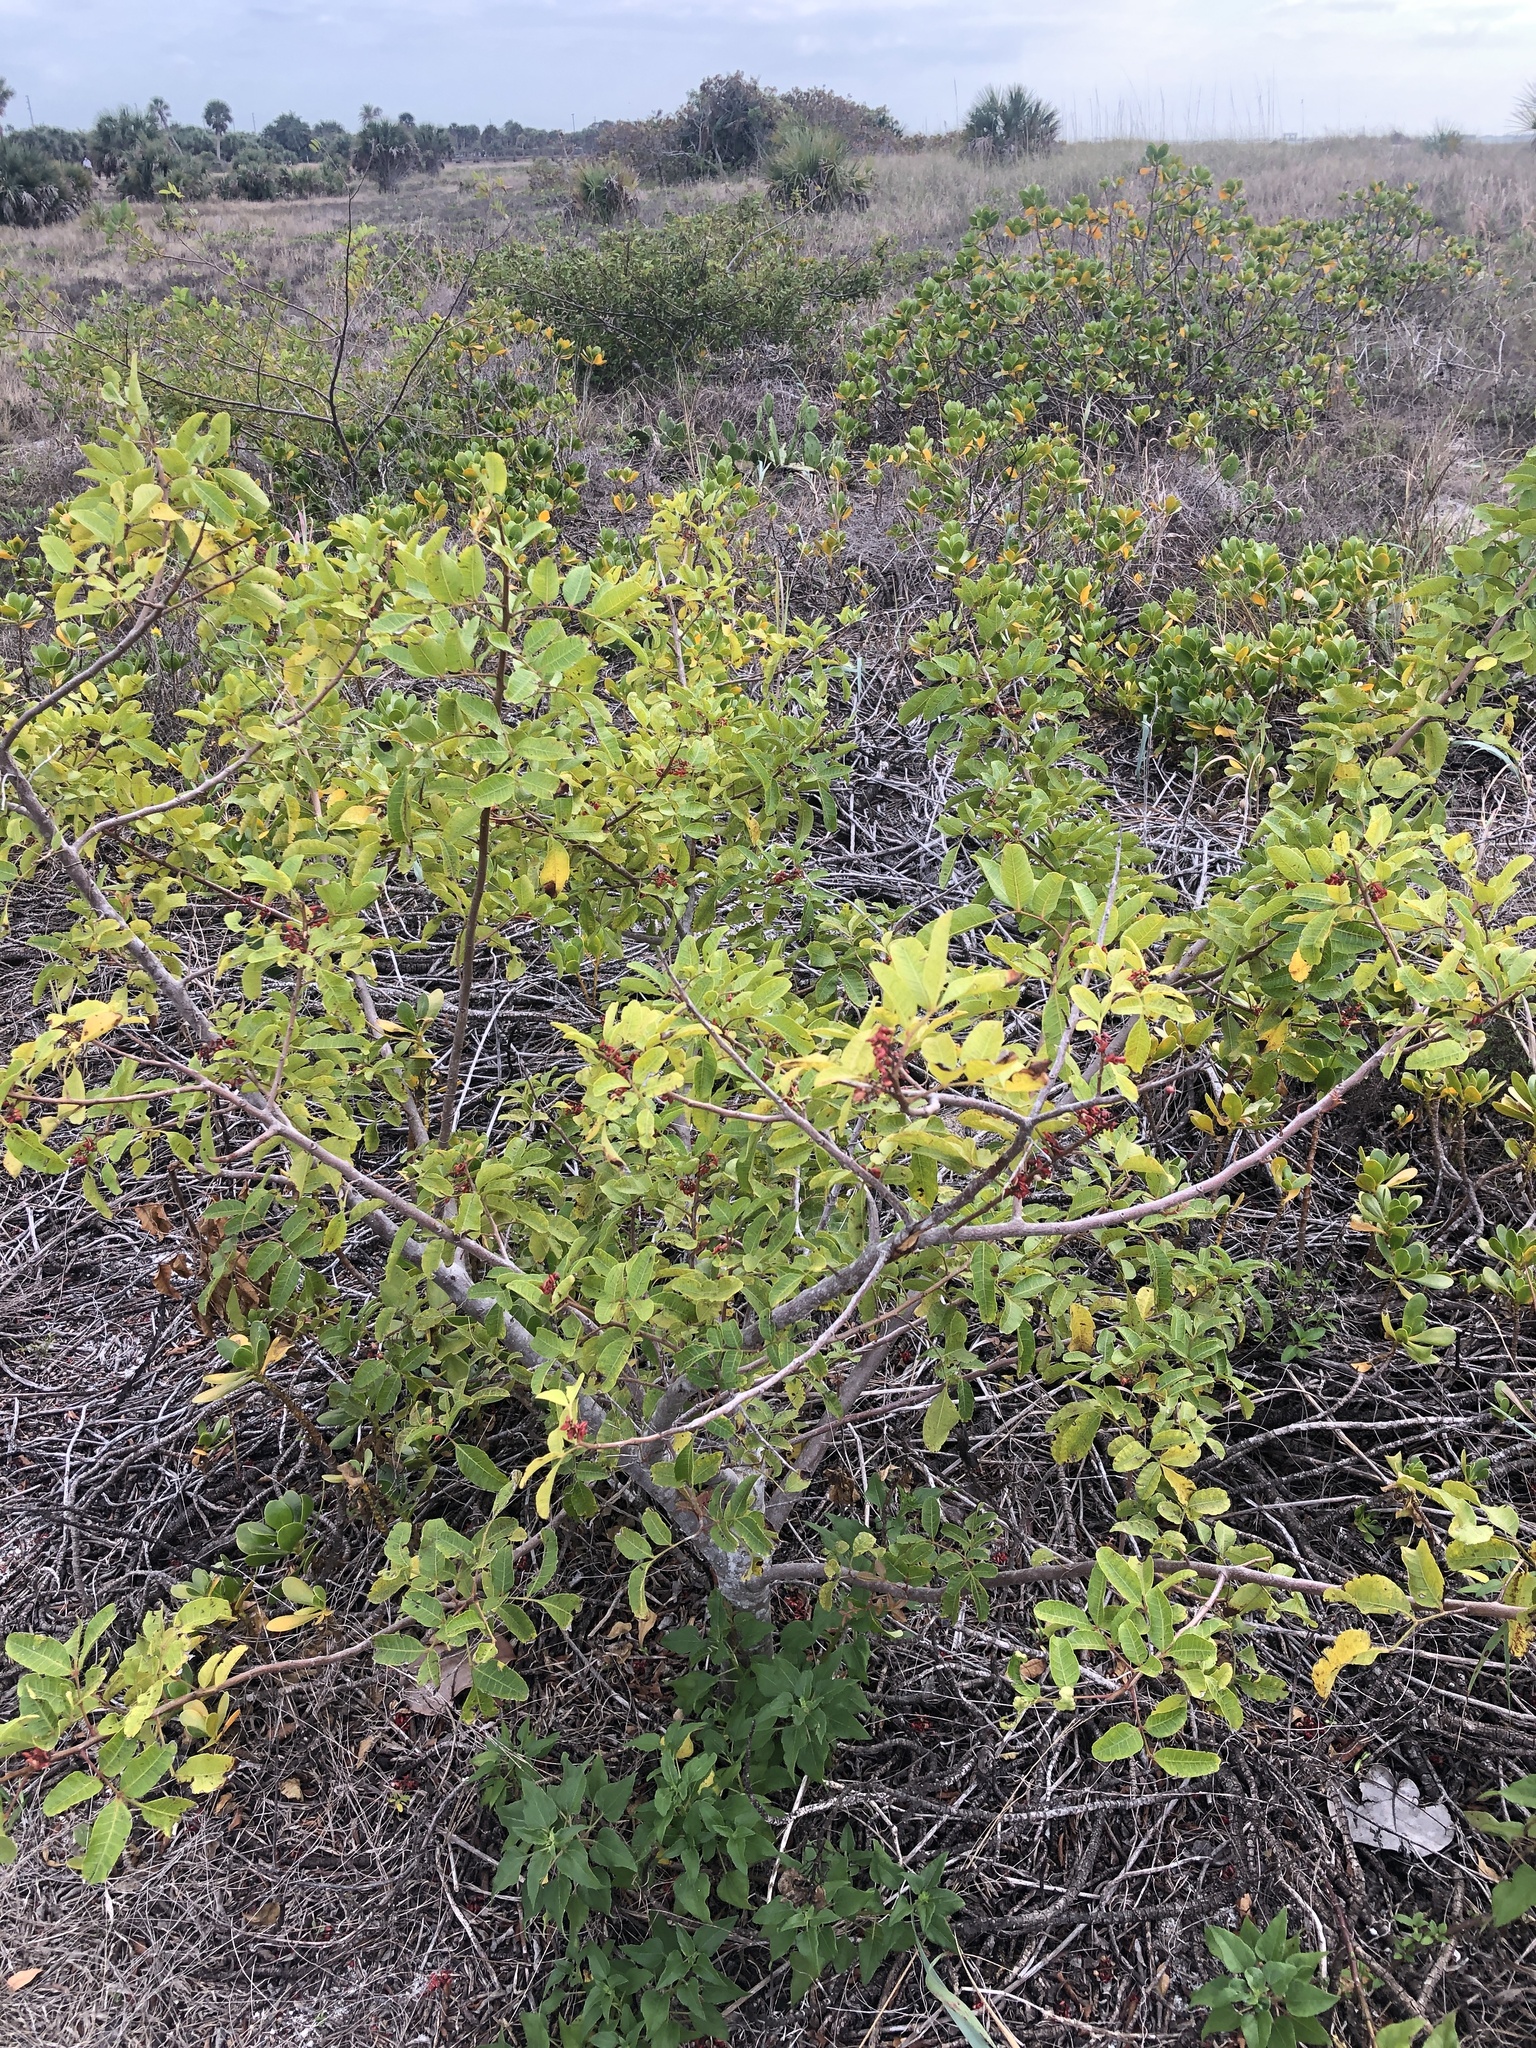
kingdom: Plantae
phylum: Tracheophyta
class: Magnoliopsida
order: Sapindales
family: Anacardiaceae
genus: Schinus
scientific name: Schinus terebinthifolia
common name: Brazilian peppertree
